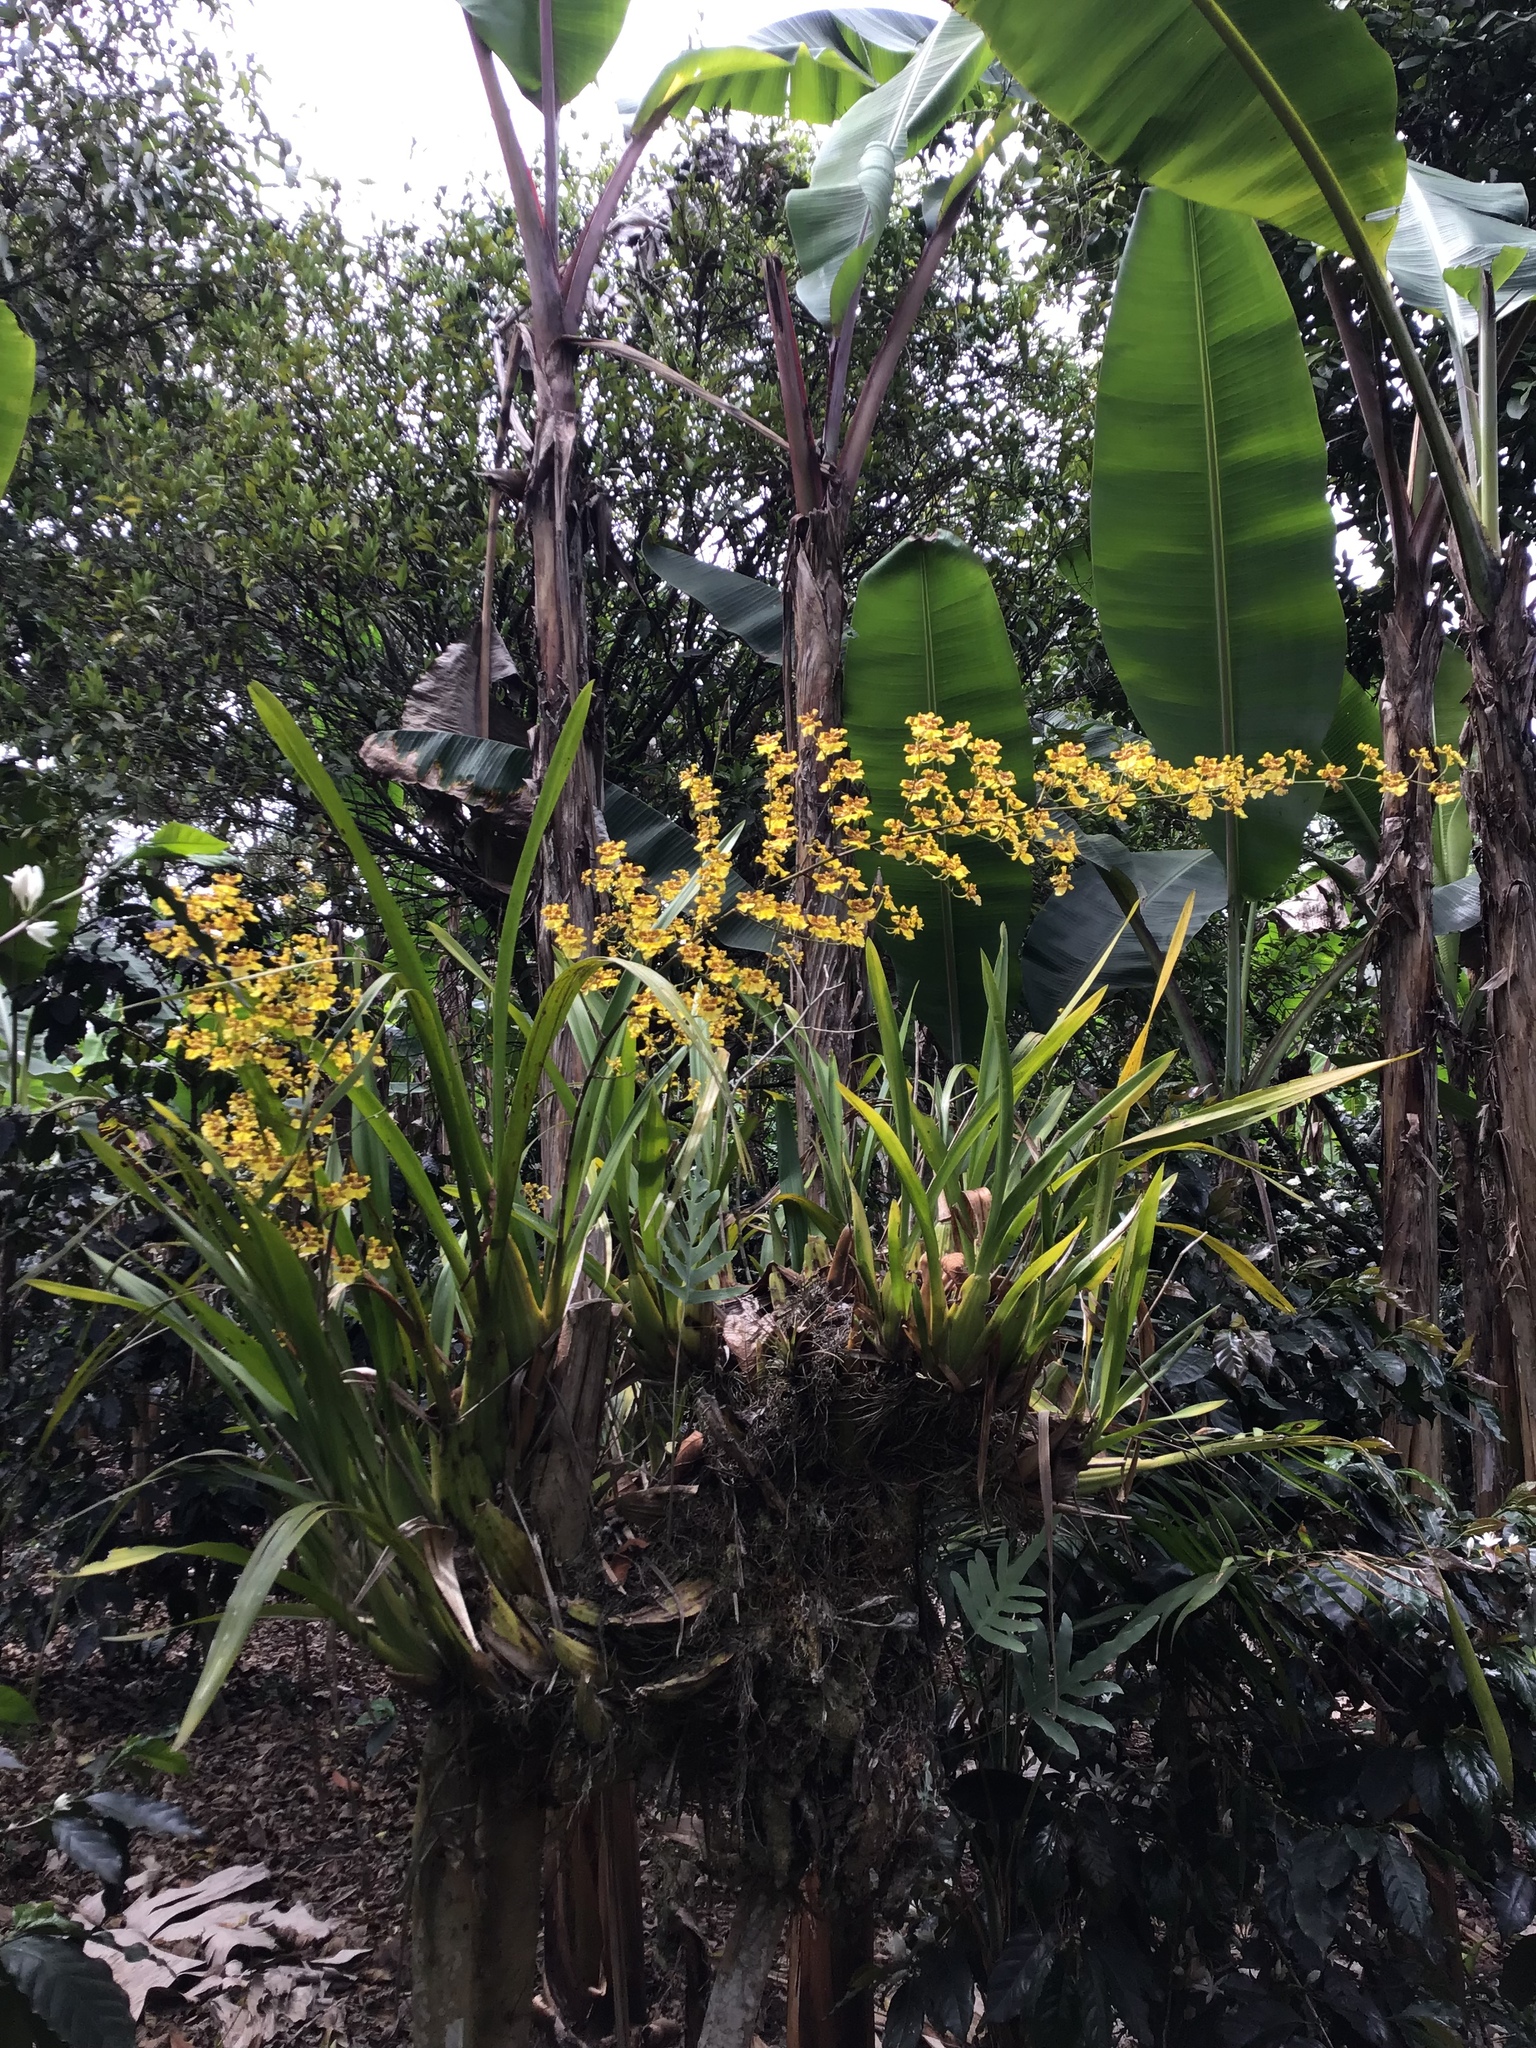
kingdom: Plantae
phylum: Tracheophyta
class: Liliopsida
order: Asparagales
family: Orchidaceae
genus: Oncidium
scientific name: Oncidium sphacelatum
